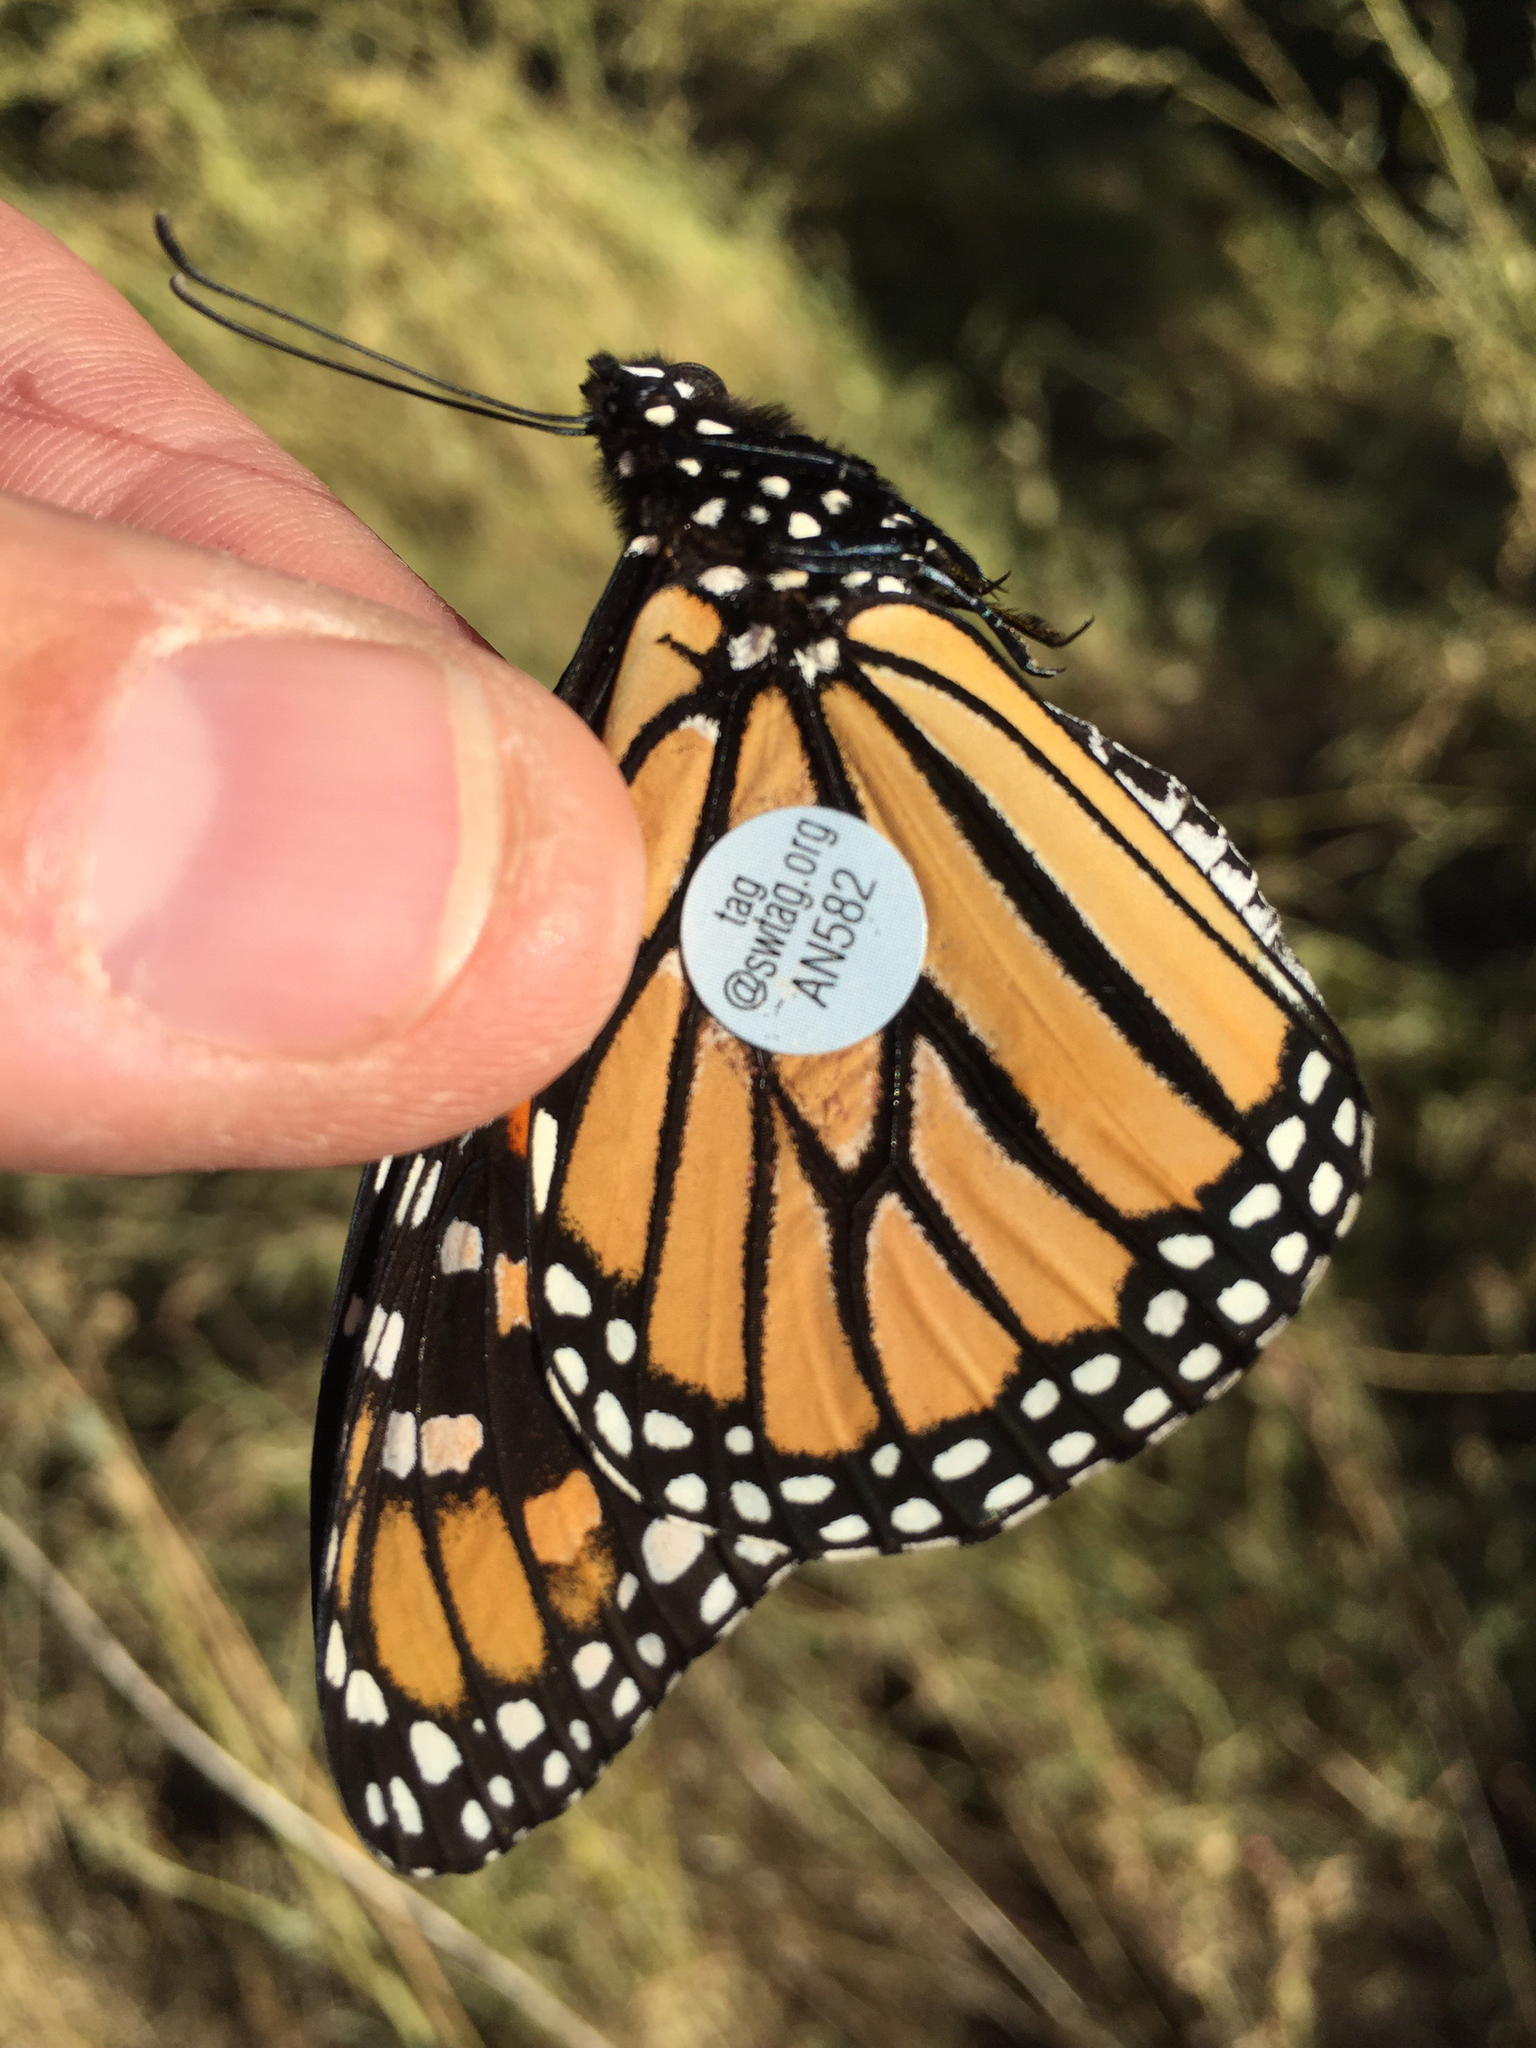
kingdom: Animalia
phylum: Arthropoda
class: Insecta
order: Lepidoptera
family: Nymphalidae
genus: Danaus
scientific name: Danaus plexippus
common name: Monarch
